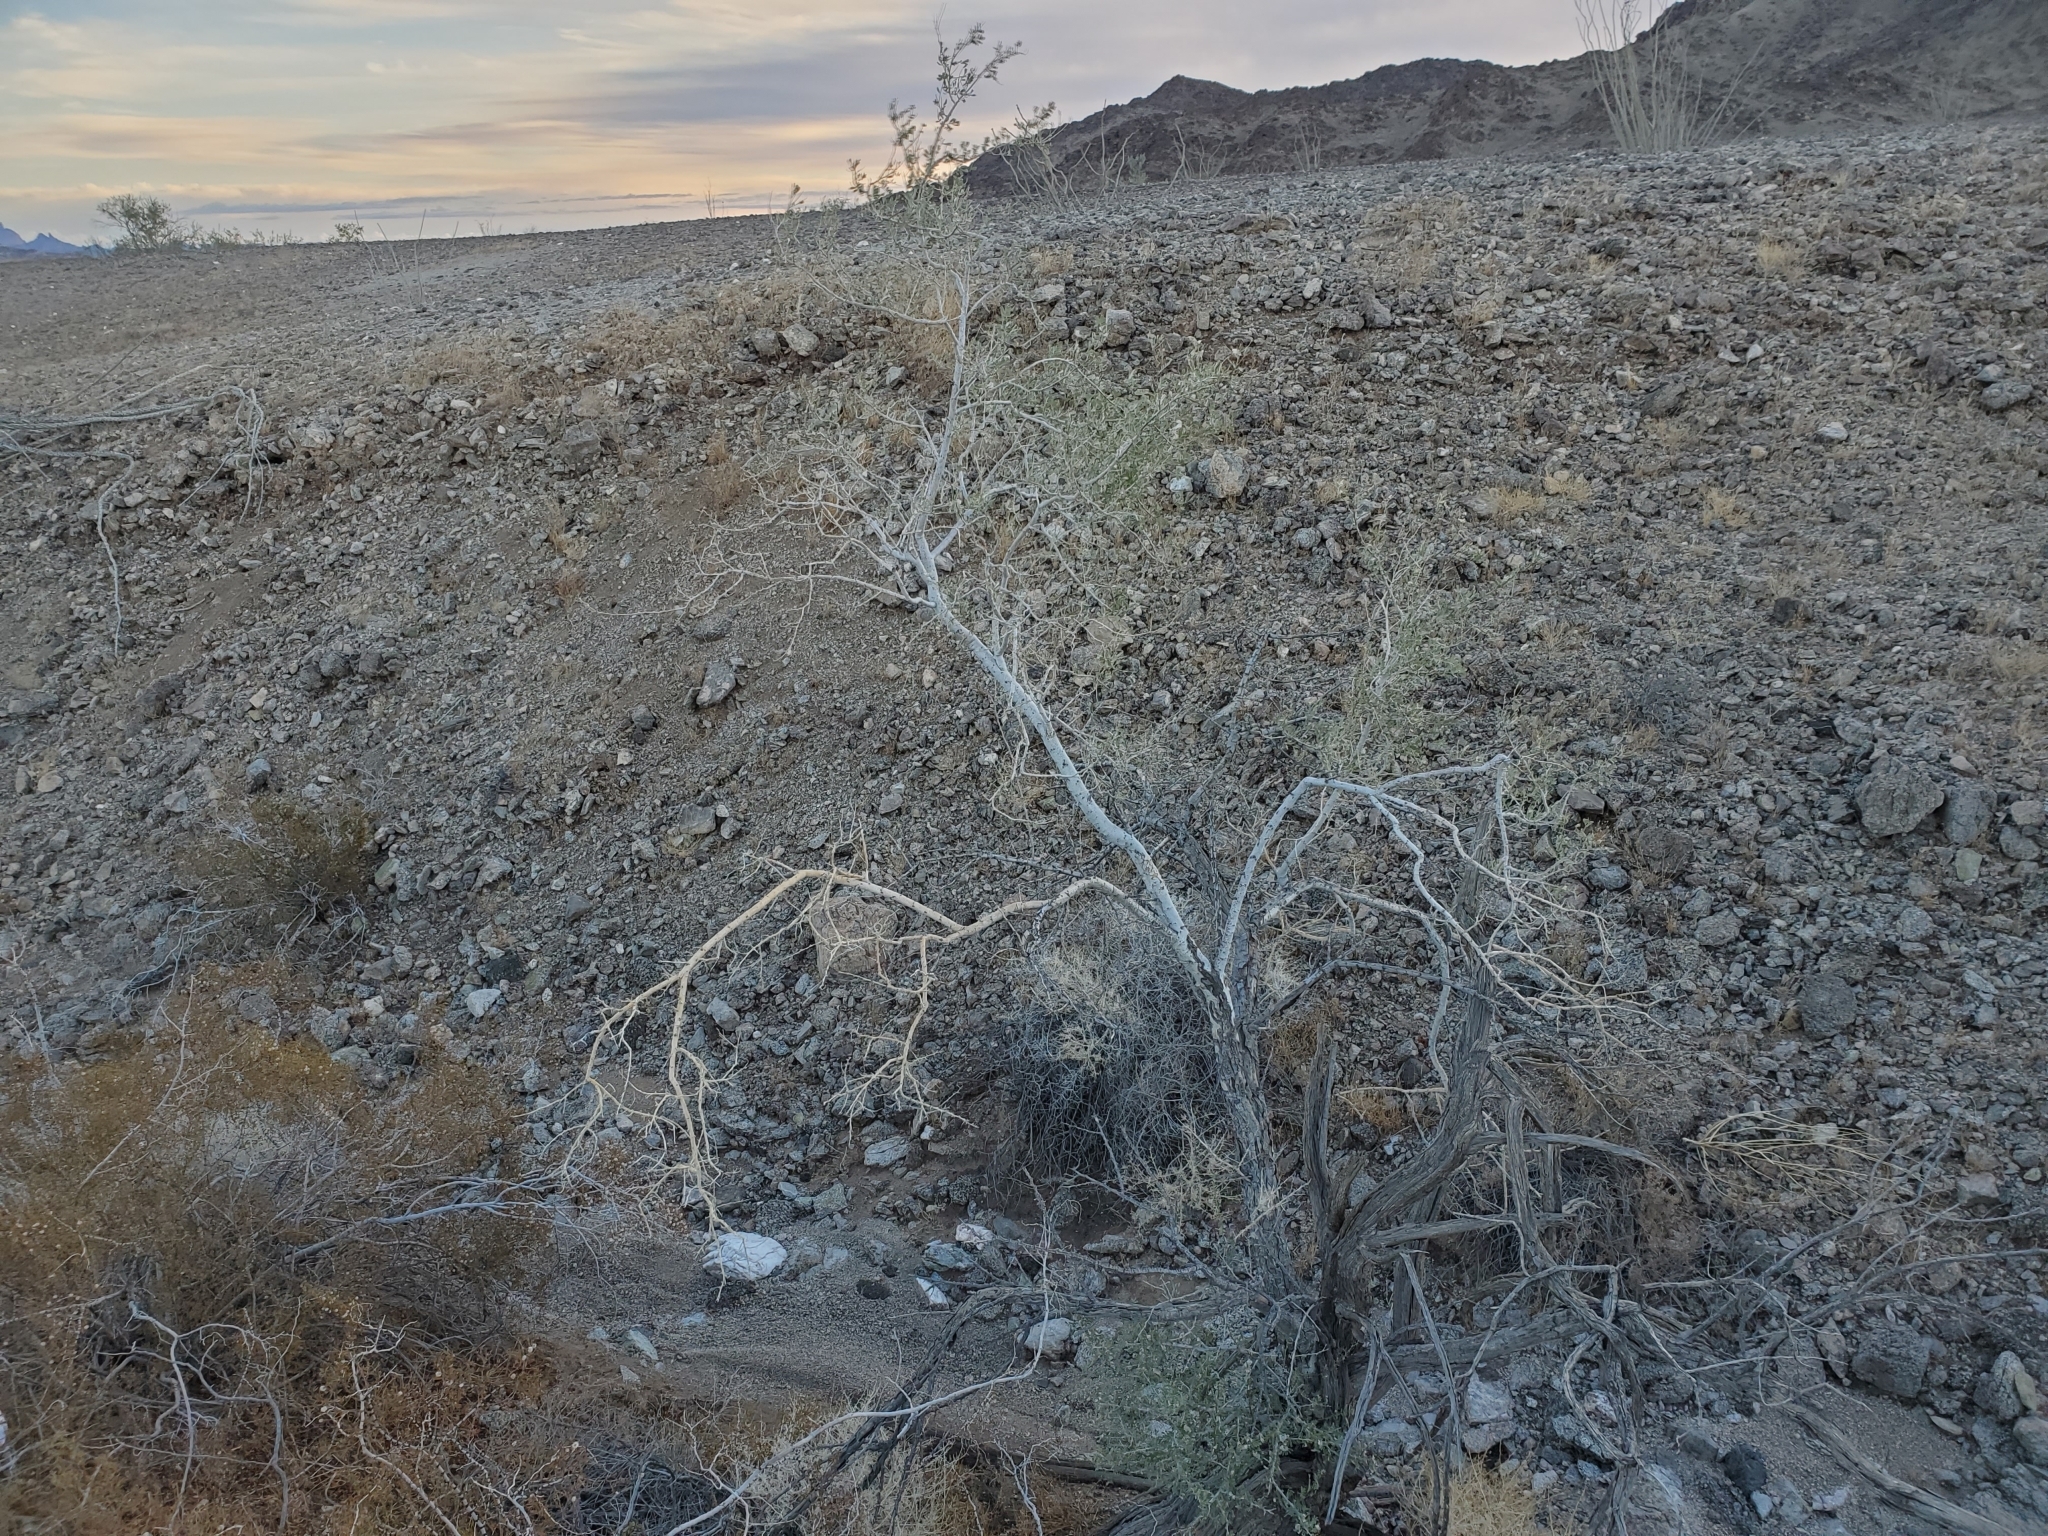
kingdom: Plantae
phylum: Tracheophyta
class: Magnoliopsida
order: Fabales
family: Fabaceae
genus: Olneya
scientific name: Olneya tesota
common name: Desert ironwood
